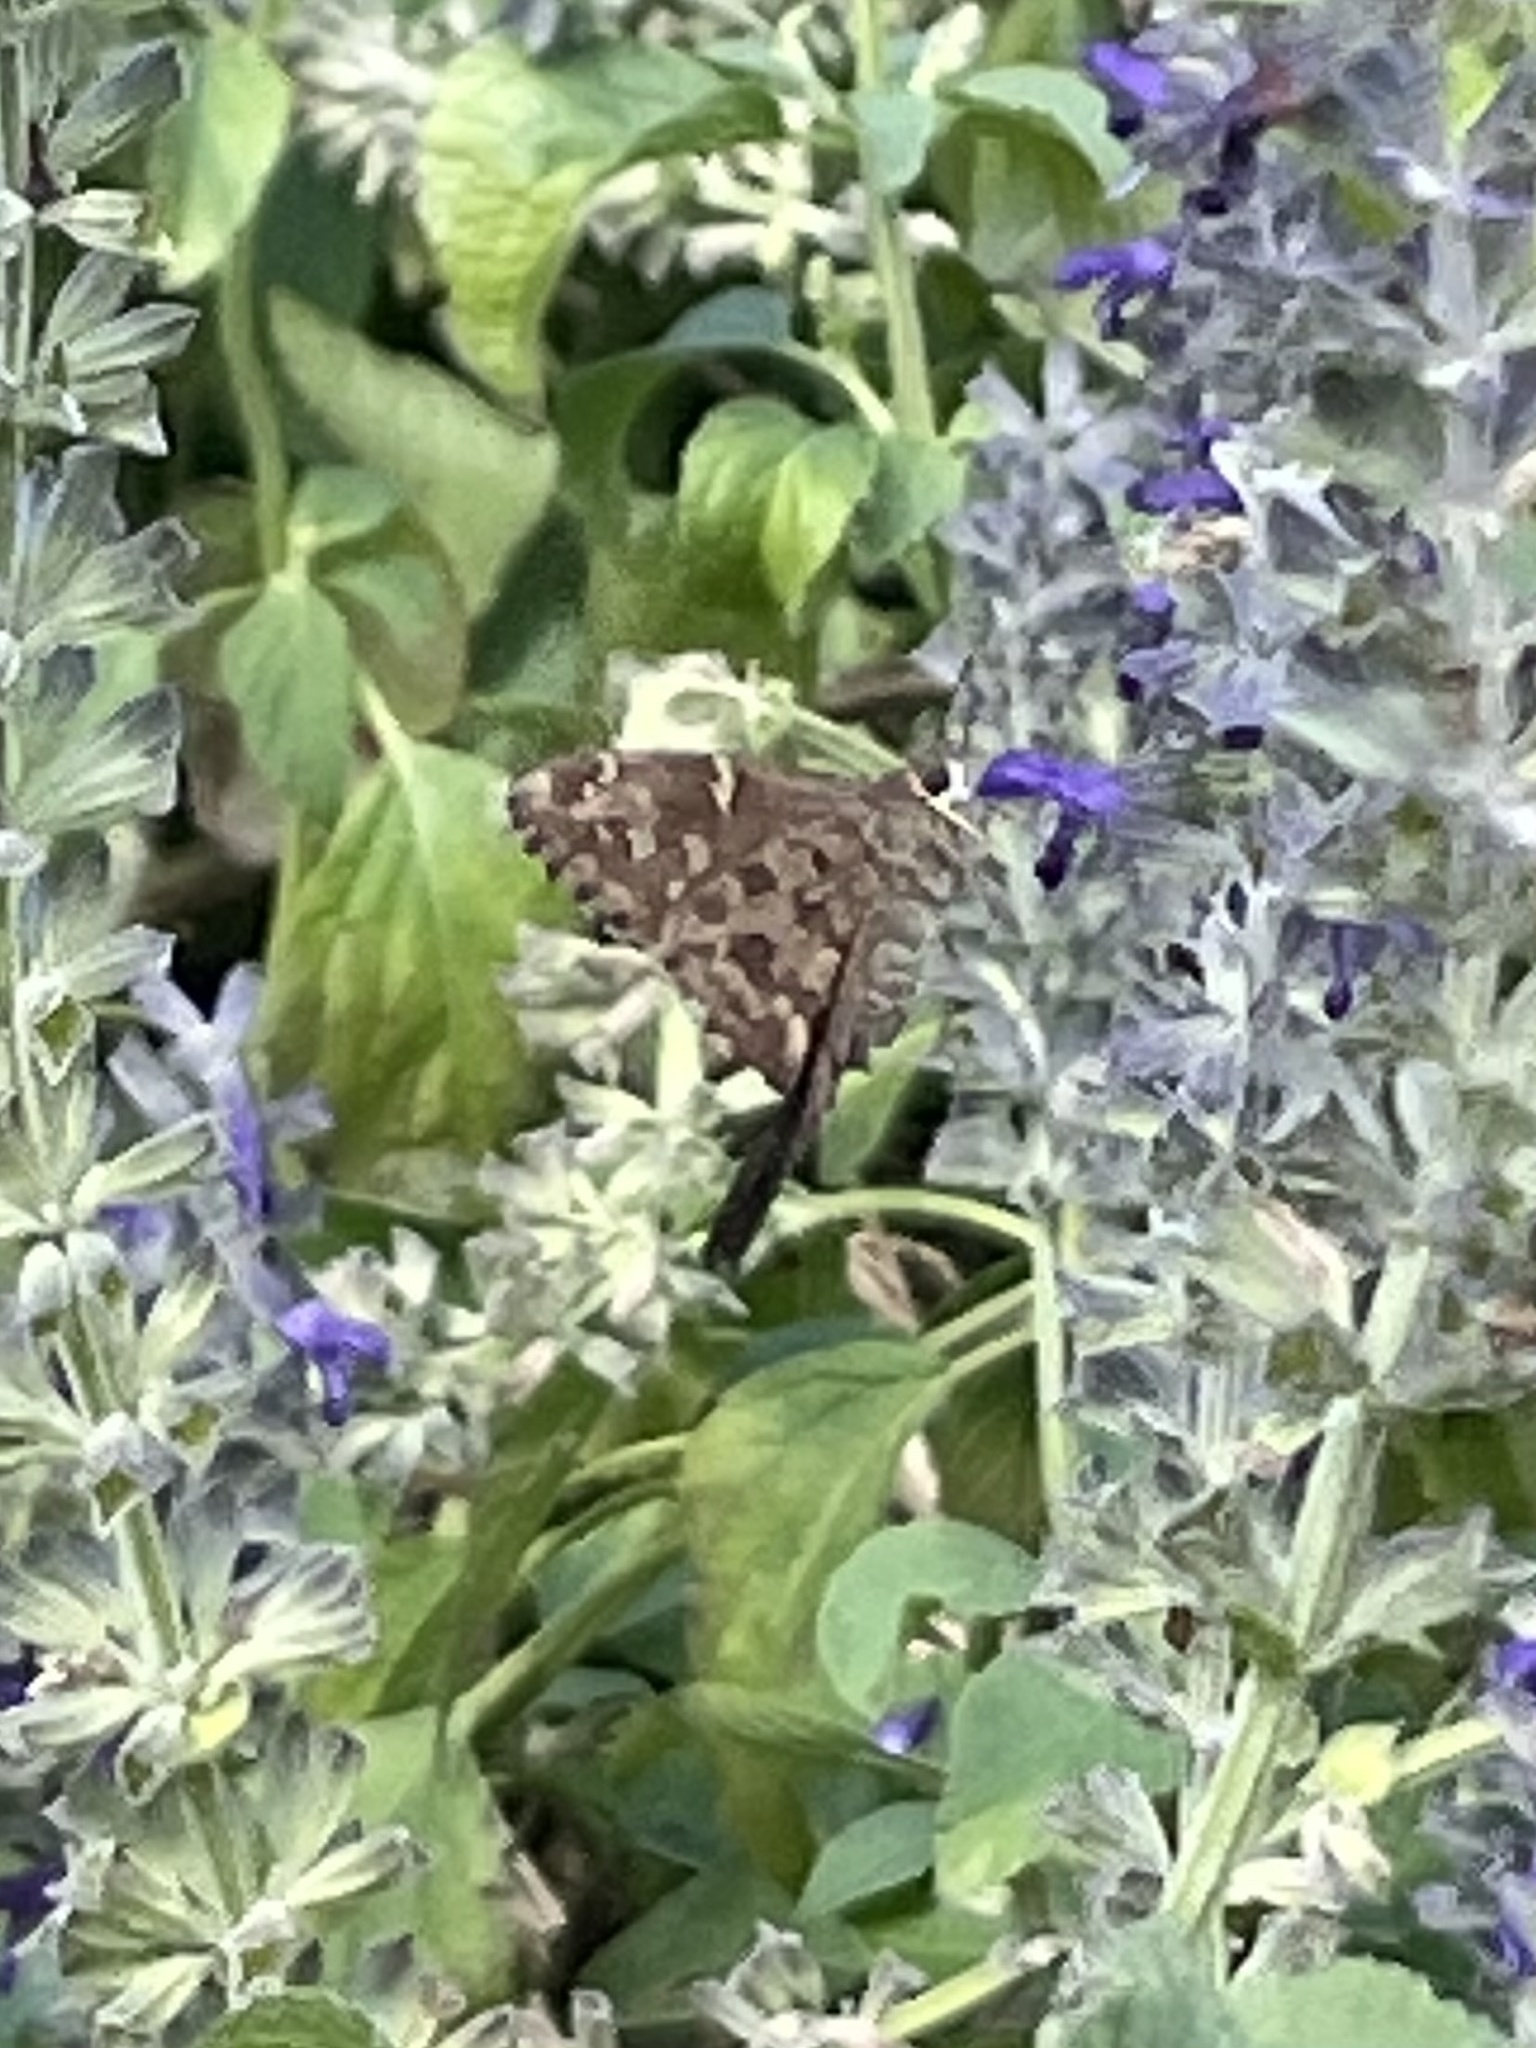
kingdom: Animalia
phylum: Arthropoda
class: Insecta
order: Lepidoptera
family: Hesperiidae
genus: Thorybes
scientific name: Thorybes
